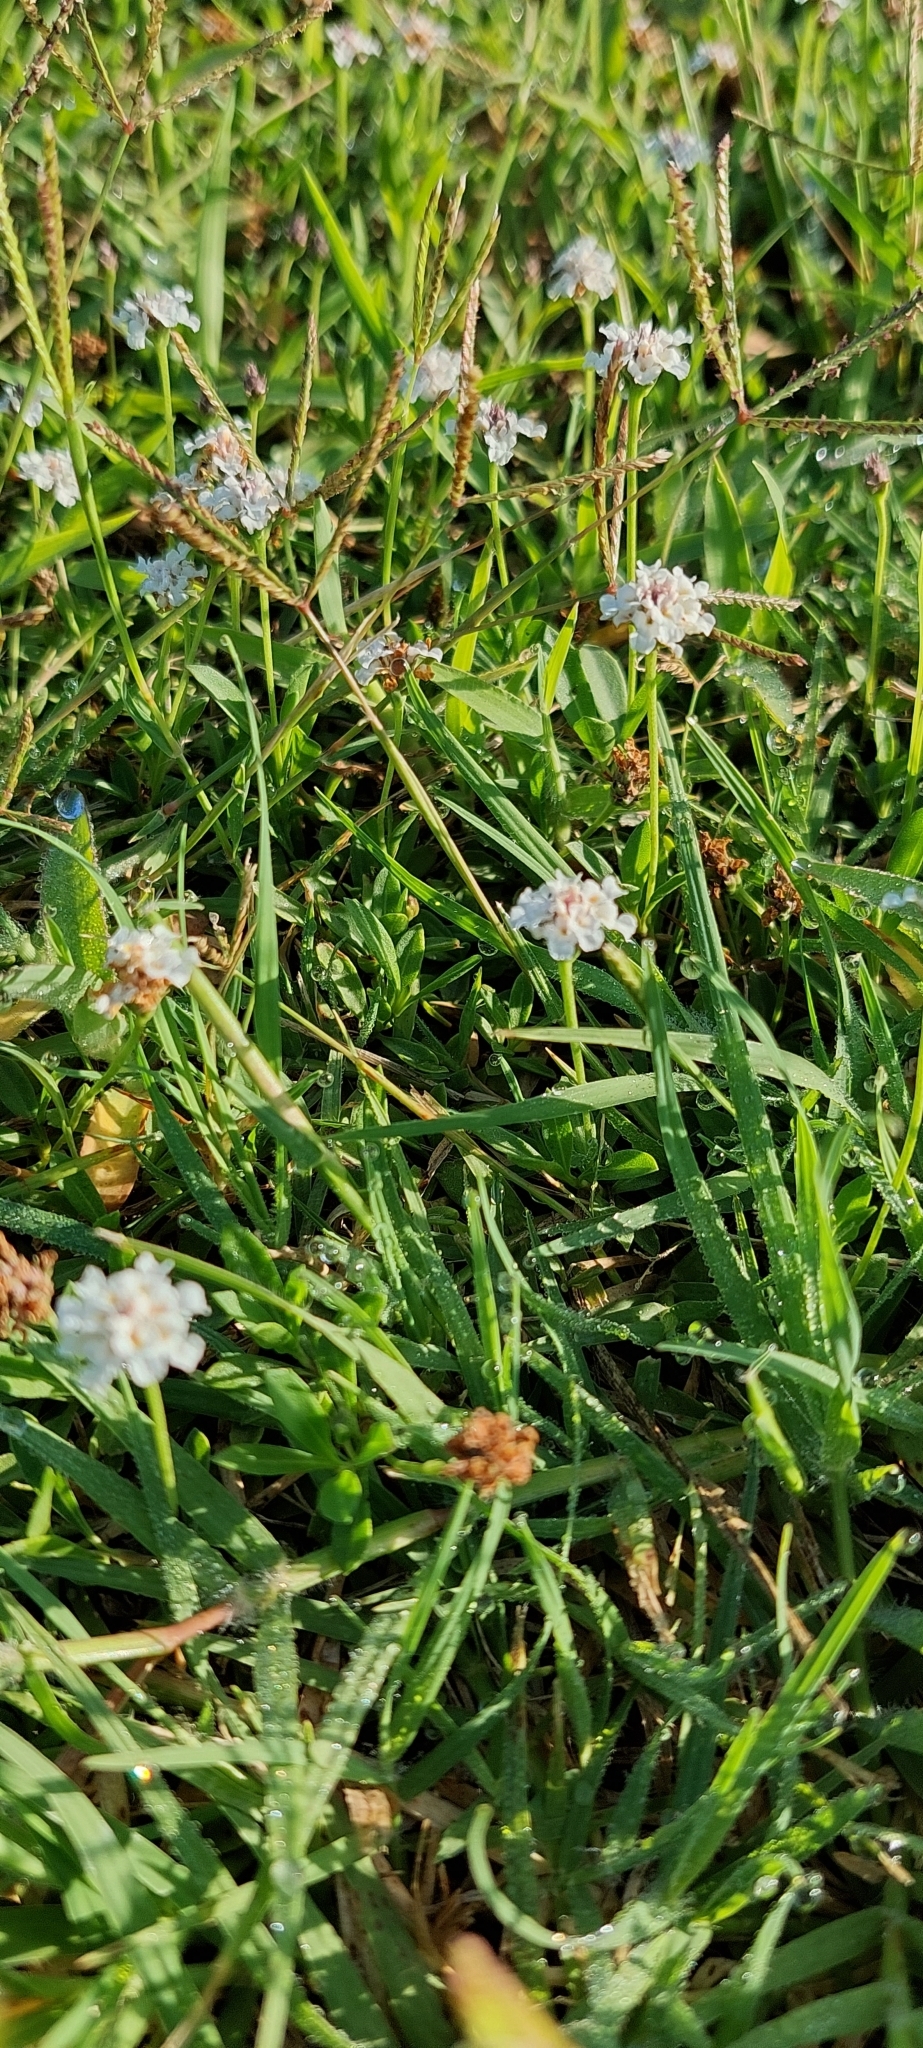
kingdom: Plantae
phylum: Tracheophyta
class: Magnoliopsida
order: Lamiales
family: Verbenaceae
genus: Phyla
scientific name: Phyla nodiflora
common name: Frogfruit
